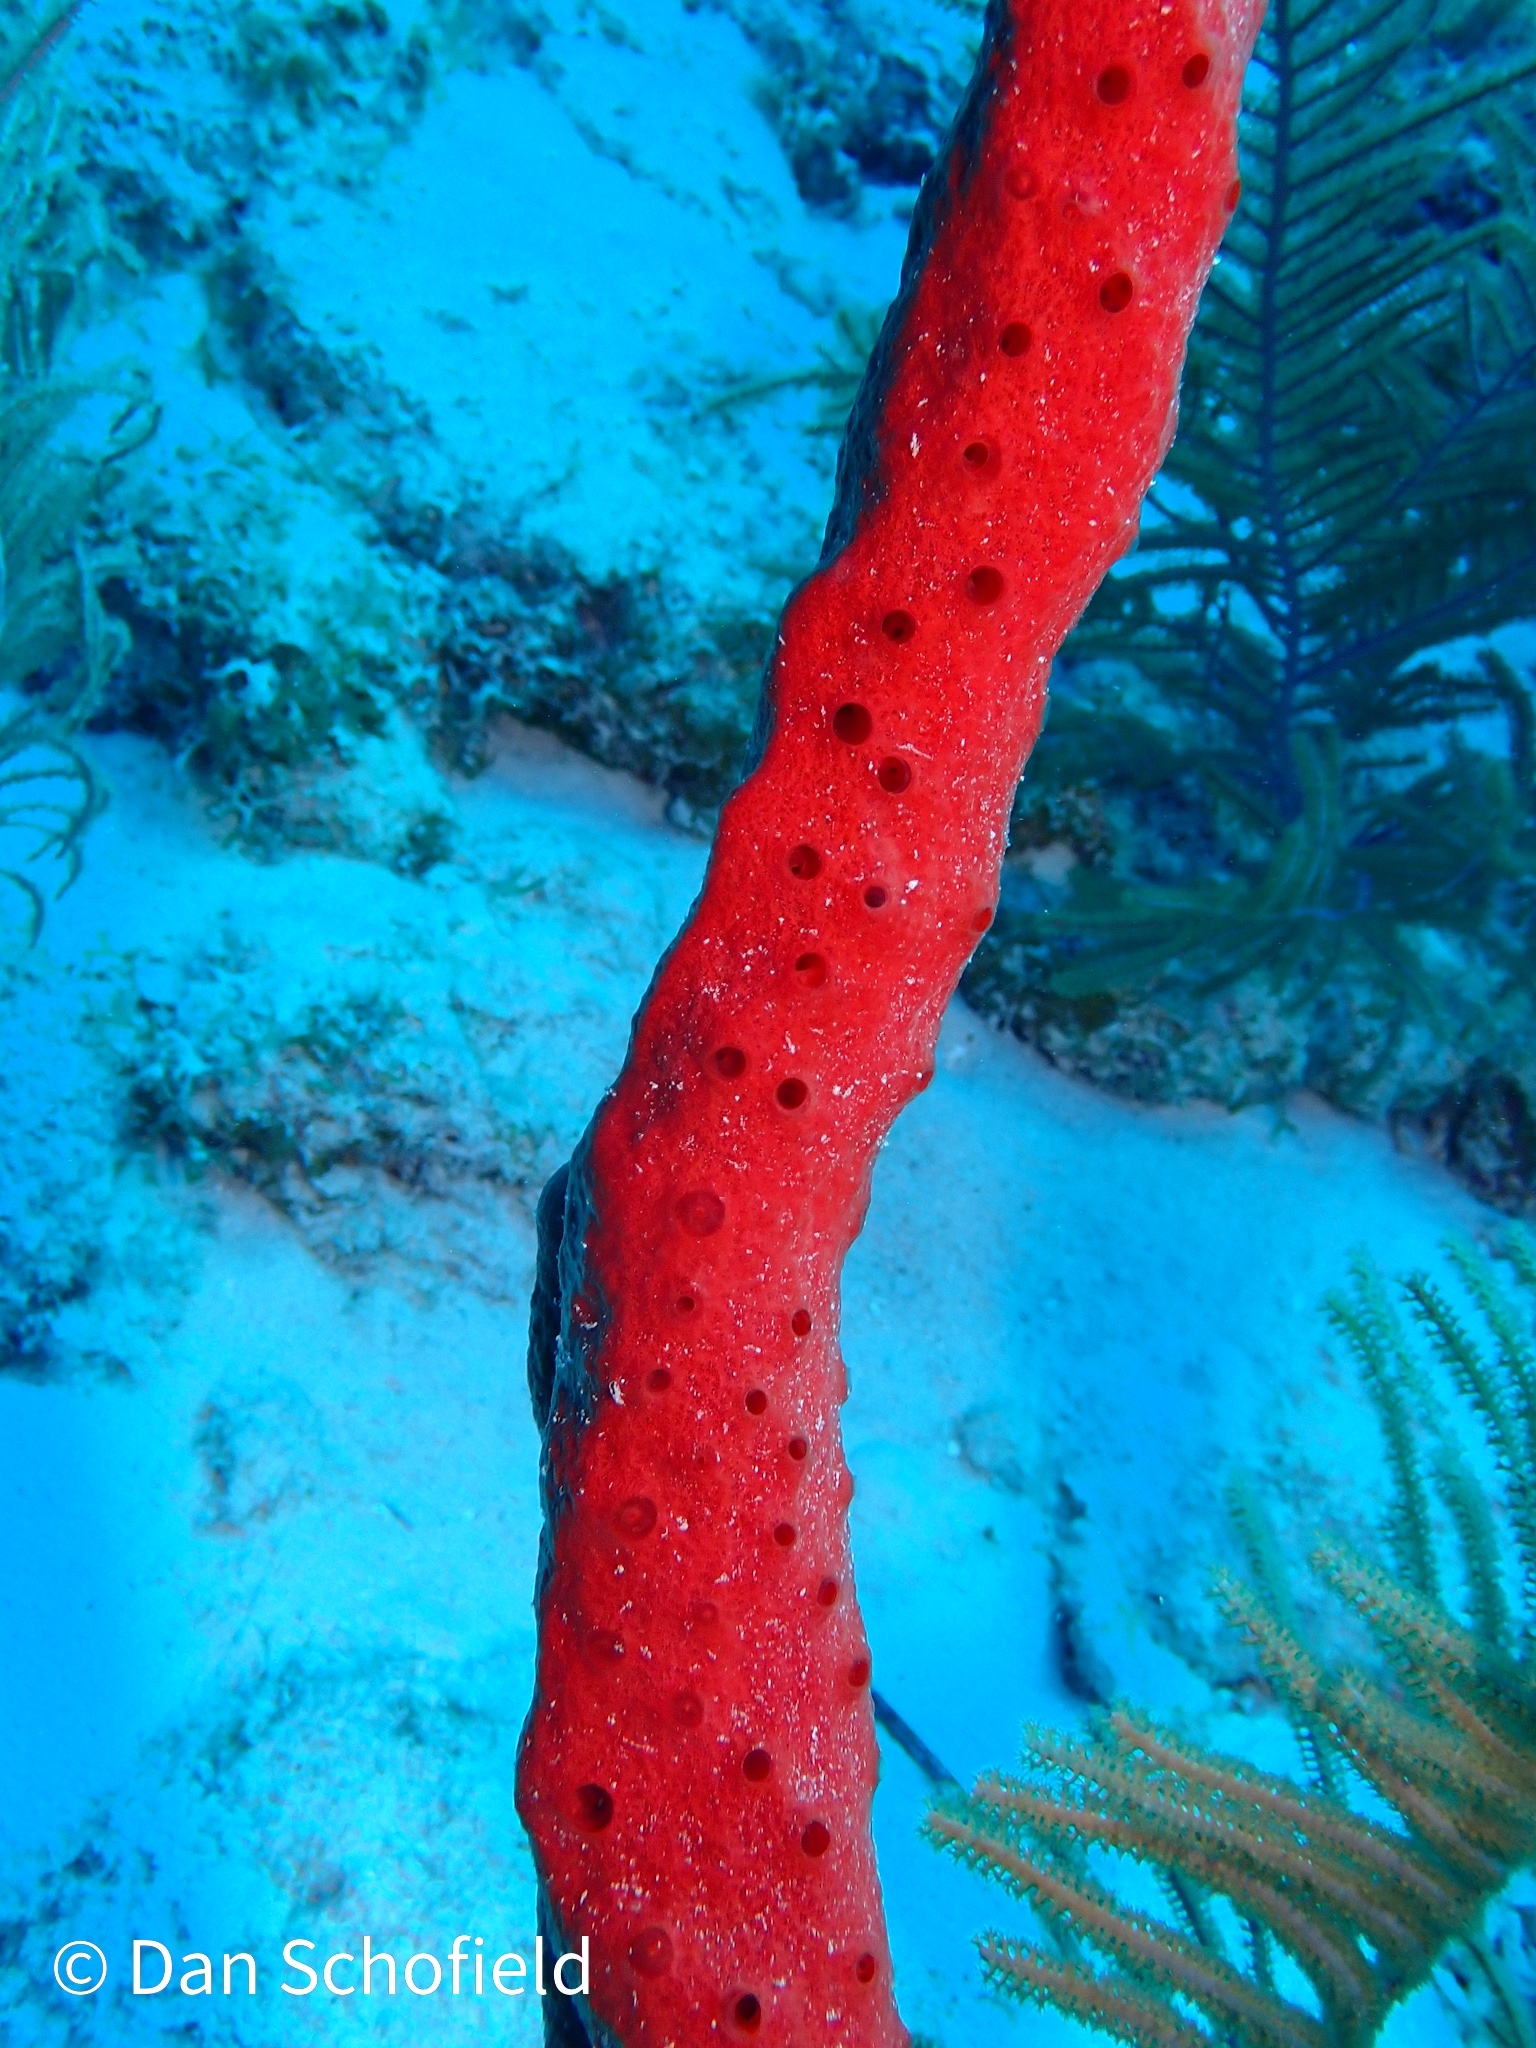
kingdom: Animalia
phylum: Porifera
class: Demospongiae
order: Haplosclerida
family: Niphatidae
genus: Amphimedon
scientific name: Amphimedon compressa
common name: Red sponge
